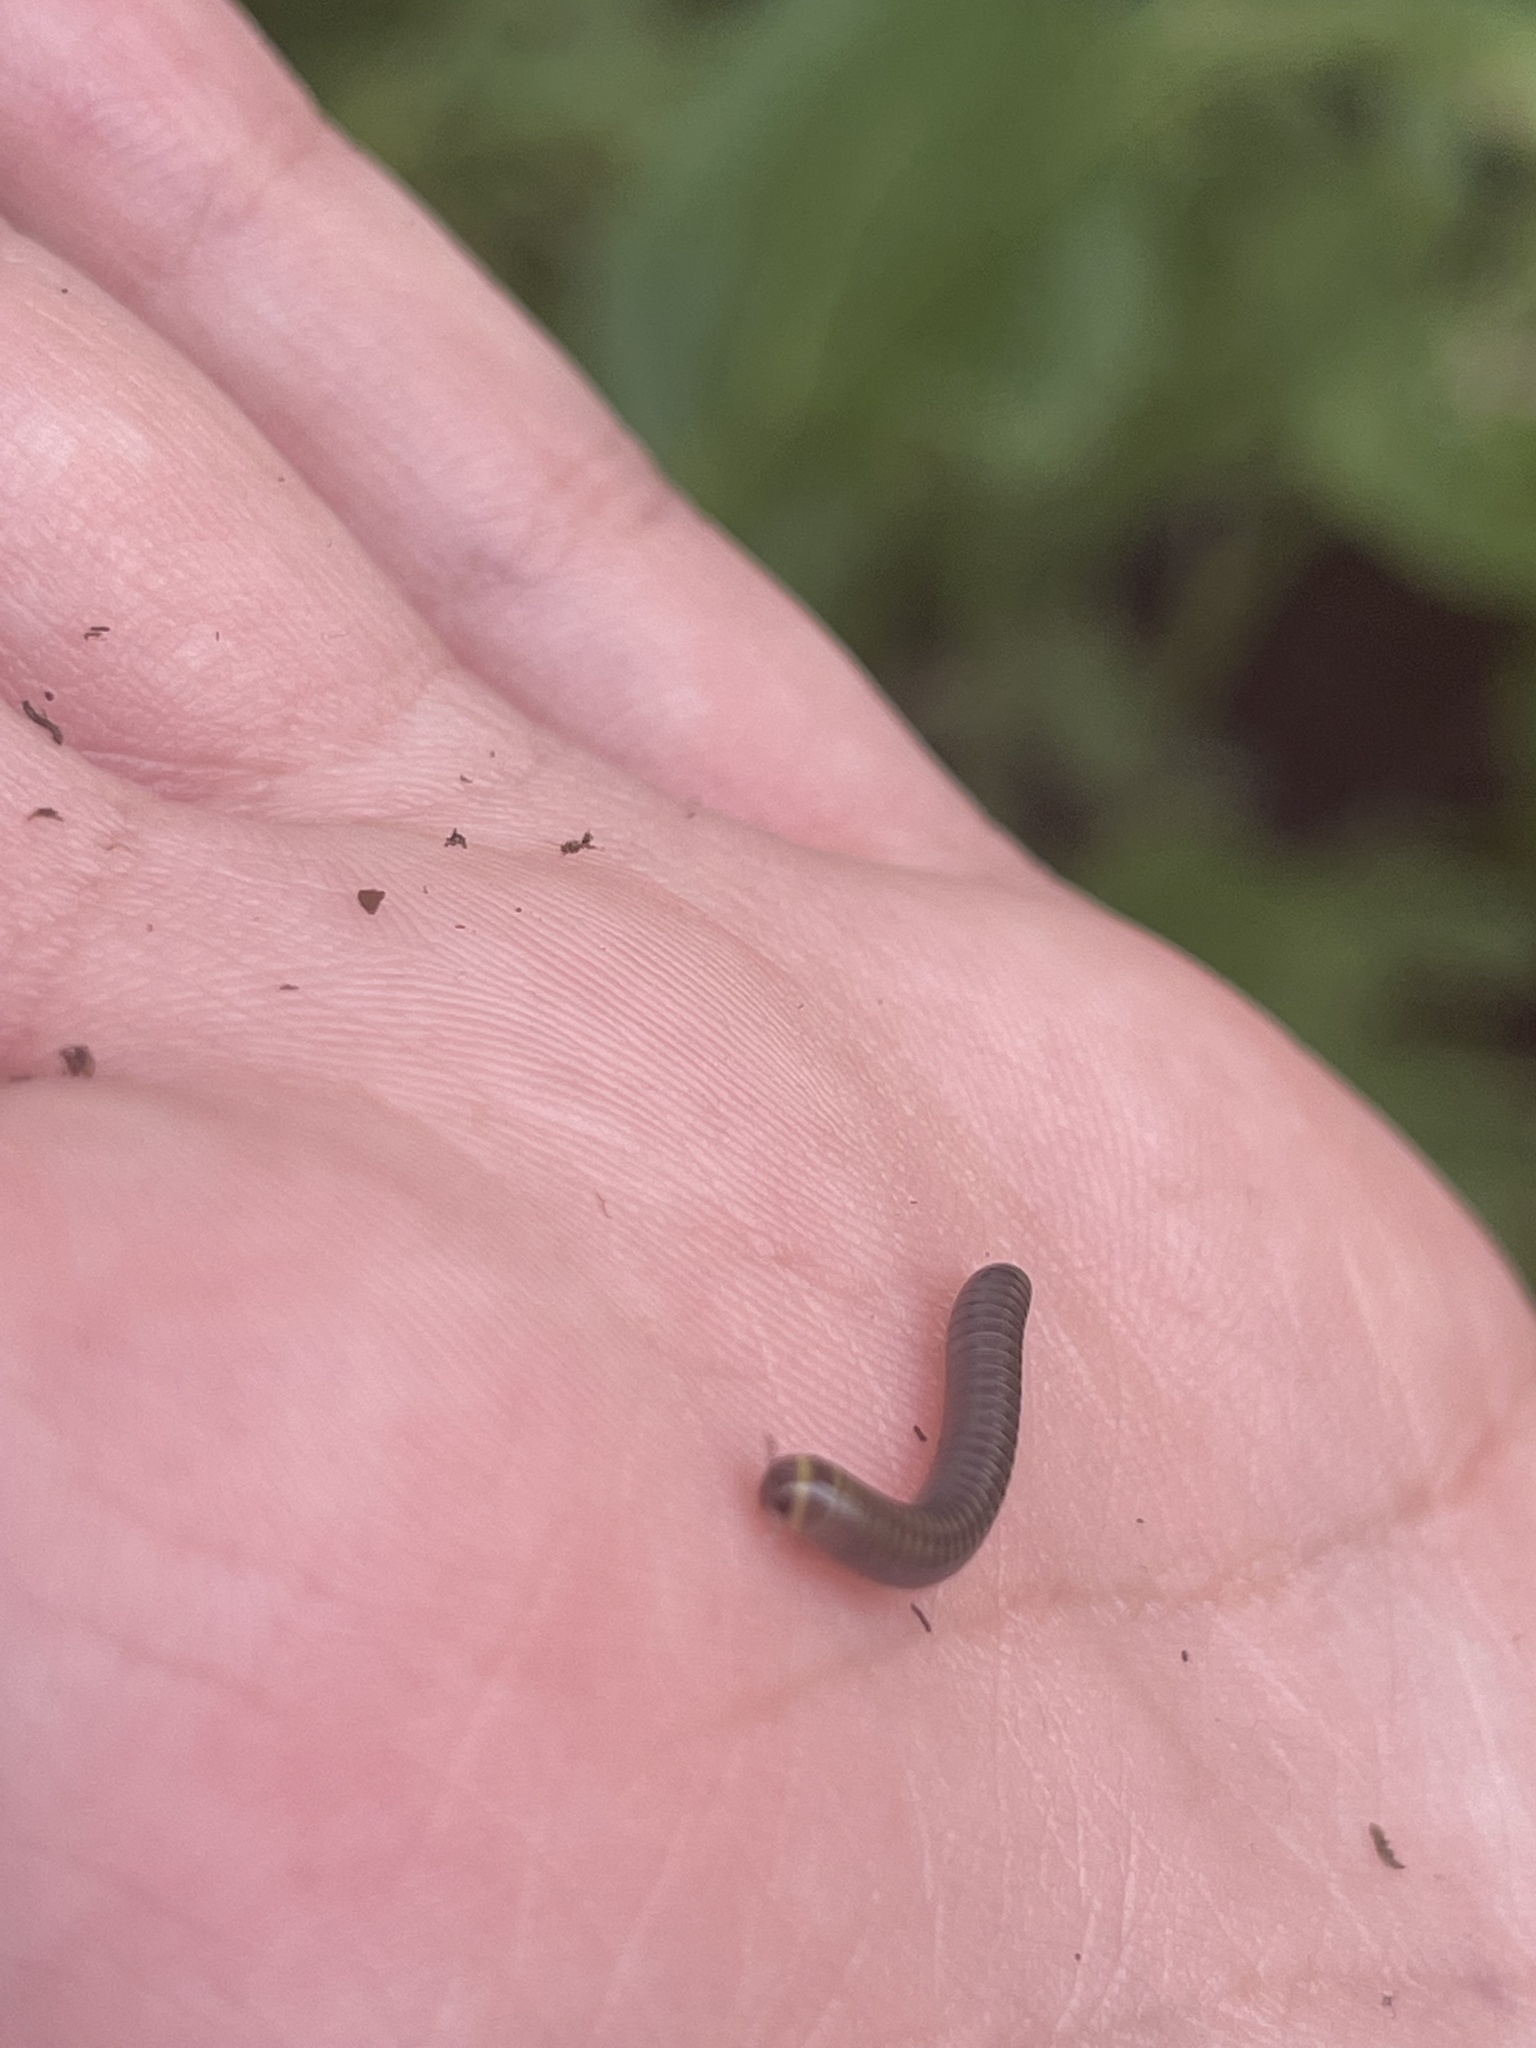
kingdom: Animalia
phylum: Arthropoda
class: Diplopoda
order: Spirobolida
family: Rhinocricidae
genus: Anadenobolus
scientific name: Anadenobolus monilicornis
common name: Caribbean millipede
